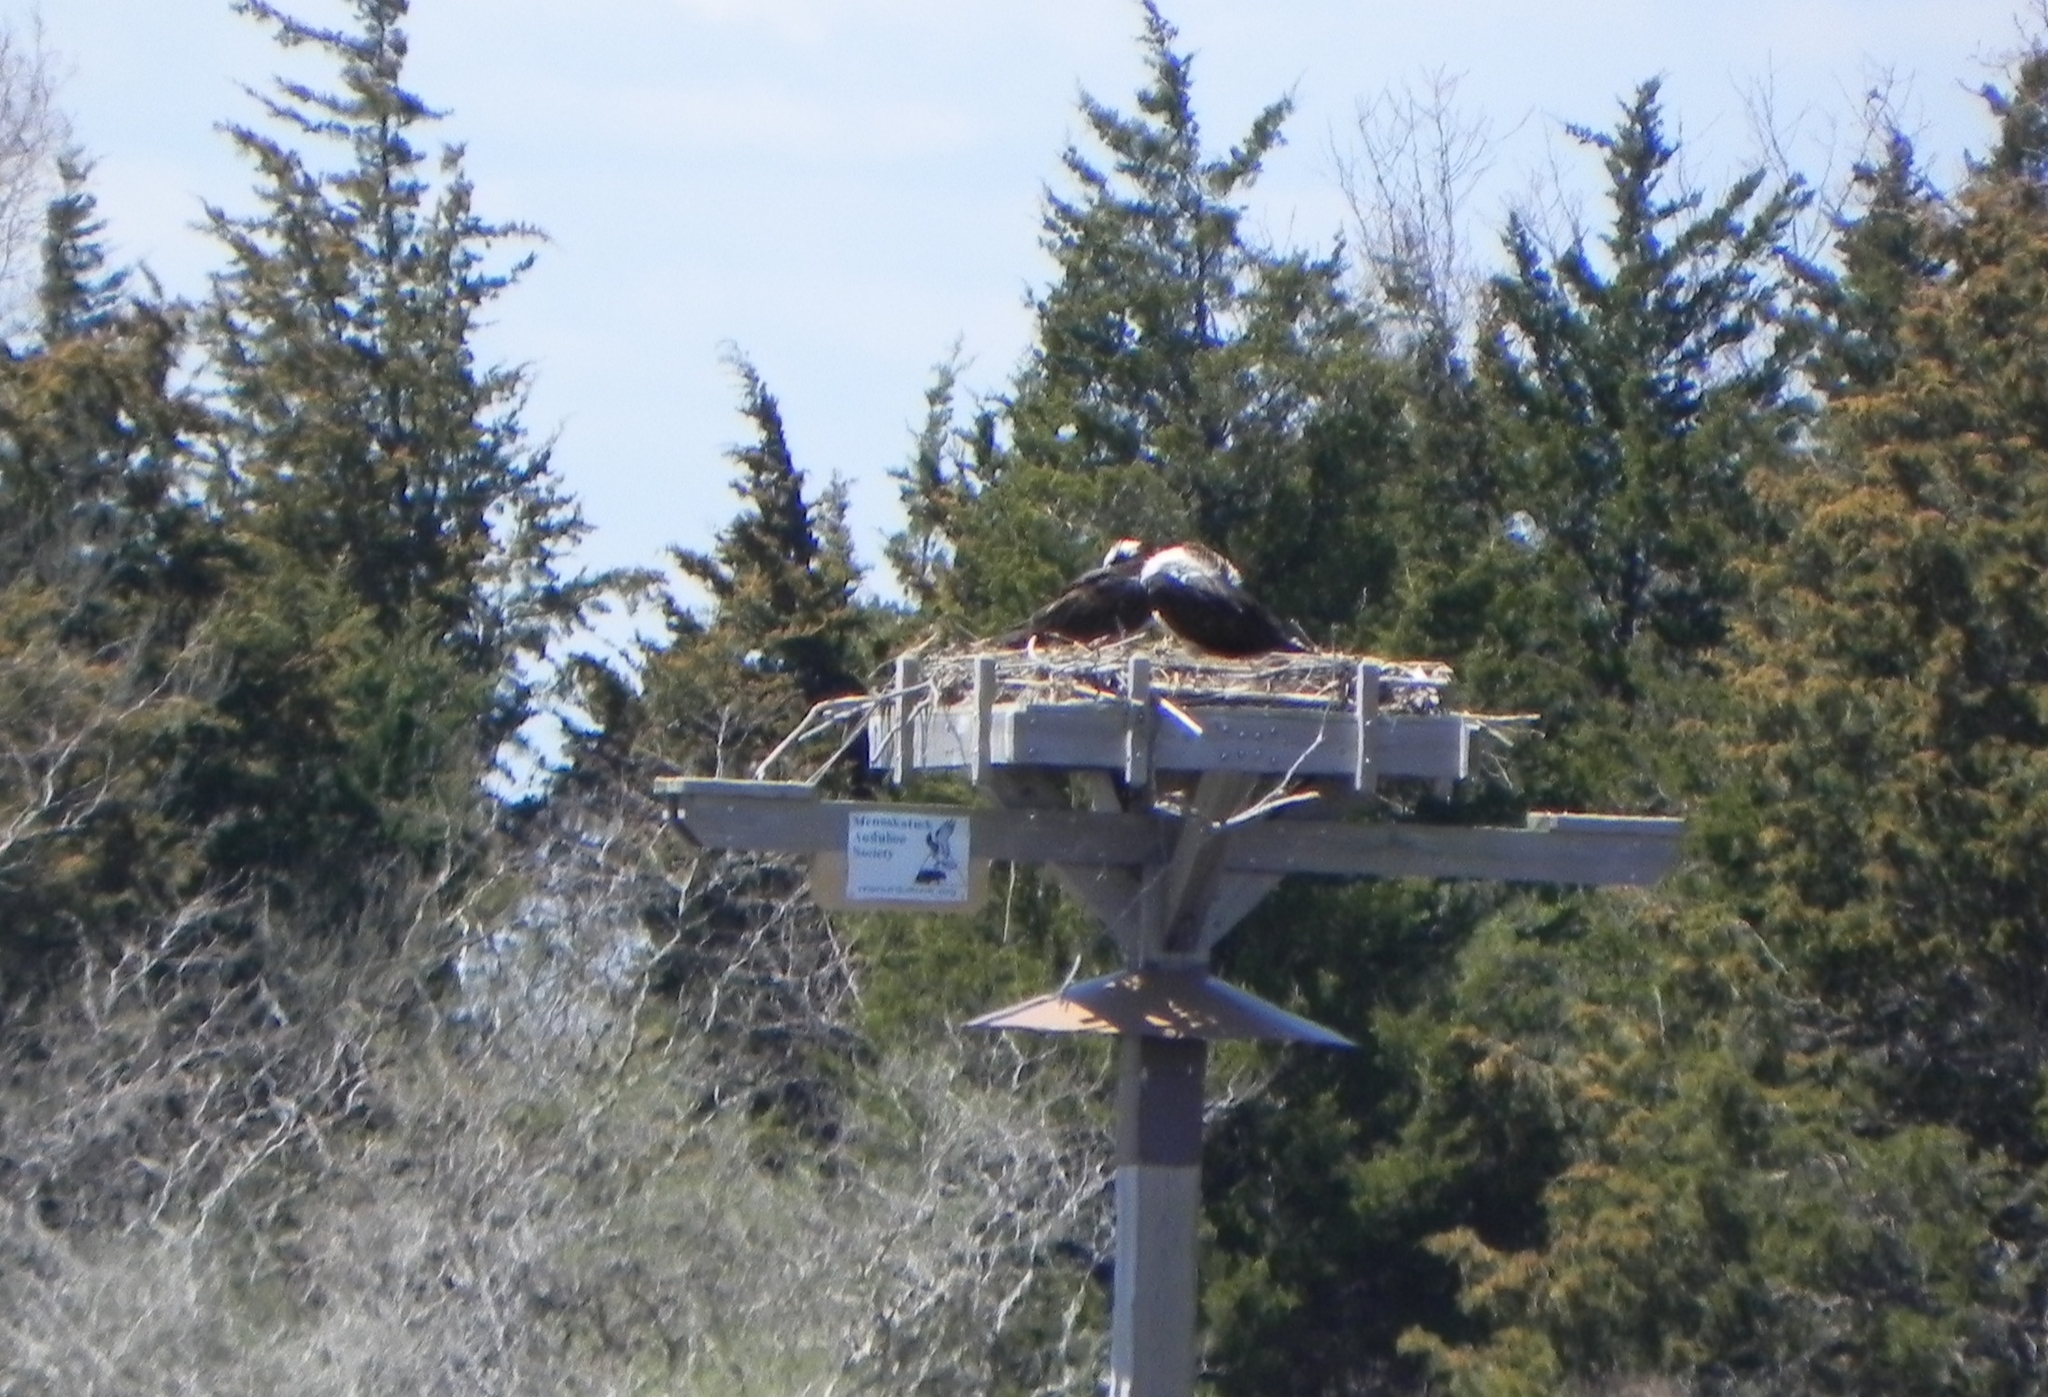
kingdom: Animalia
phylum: Chordata
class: Aves
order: Accipitriformes
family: Pandionidae
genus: Pandion
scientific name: Pandion haliaetus
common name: Osprey
